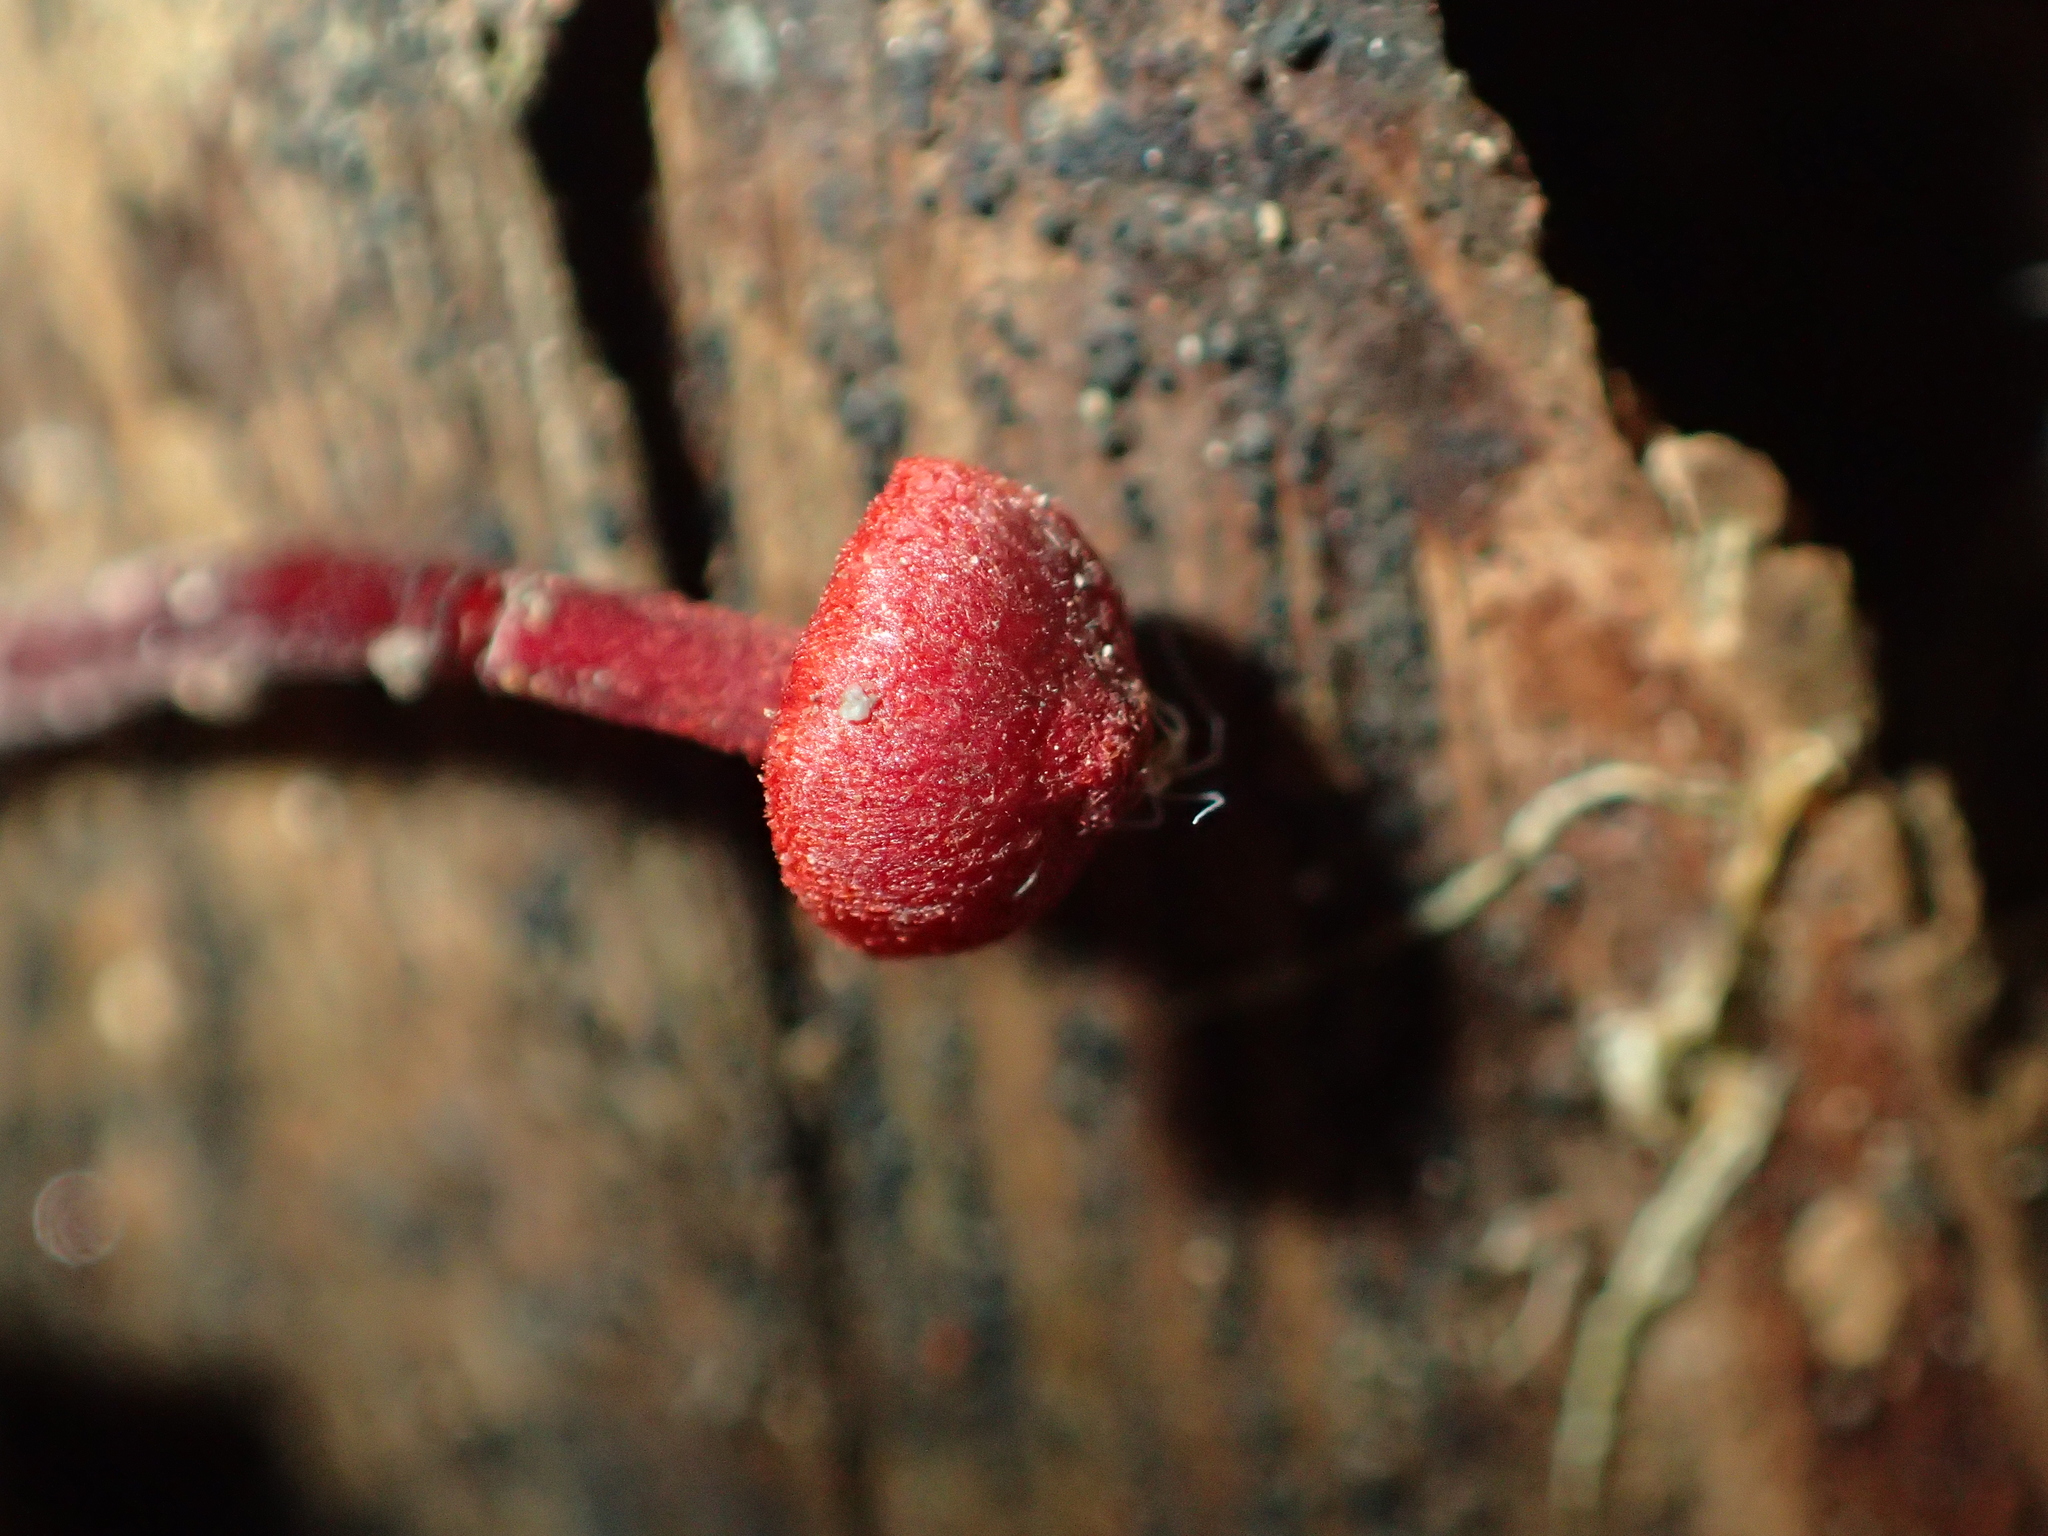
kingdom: Fungi
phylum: Basidiomycota
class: Agaricomycetes
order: Agaricales
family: Mycenaceae
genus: Cruentomycena
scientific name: Cruentomycena viscidocruenta
